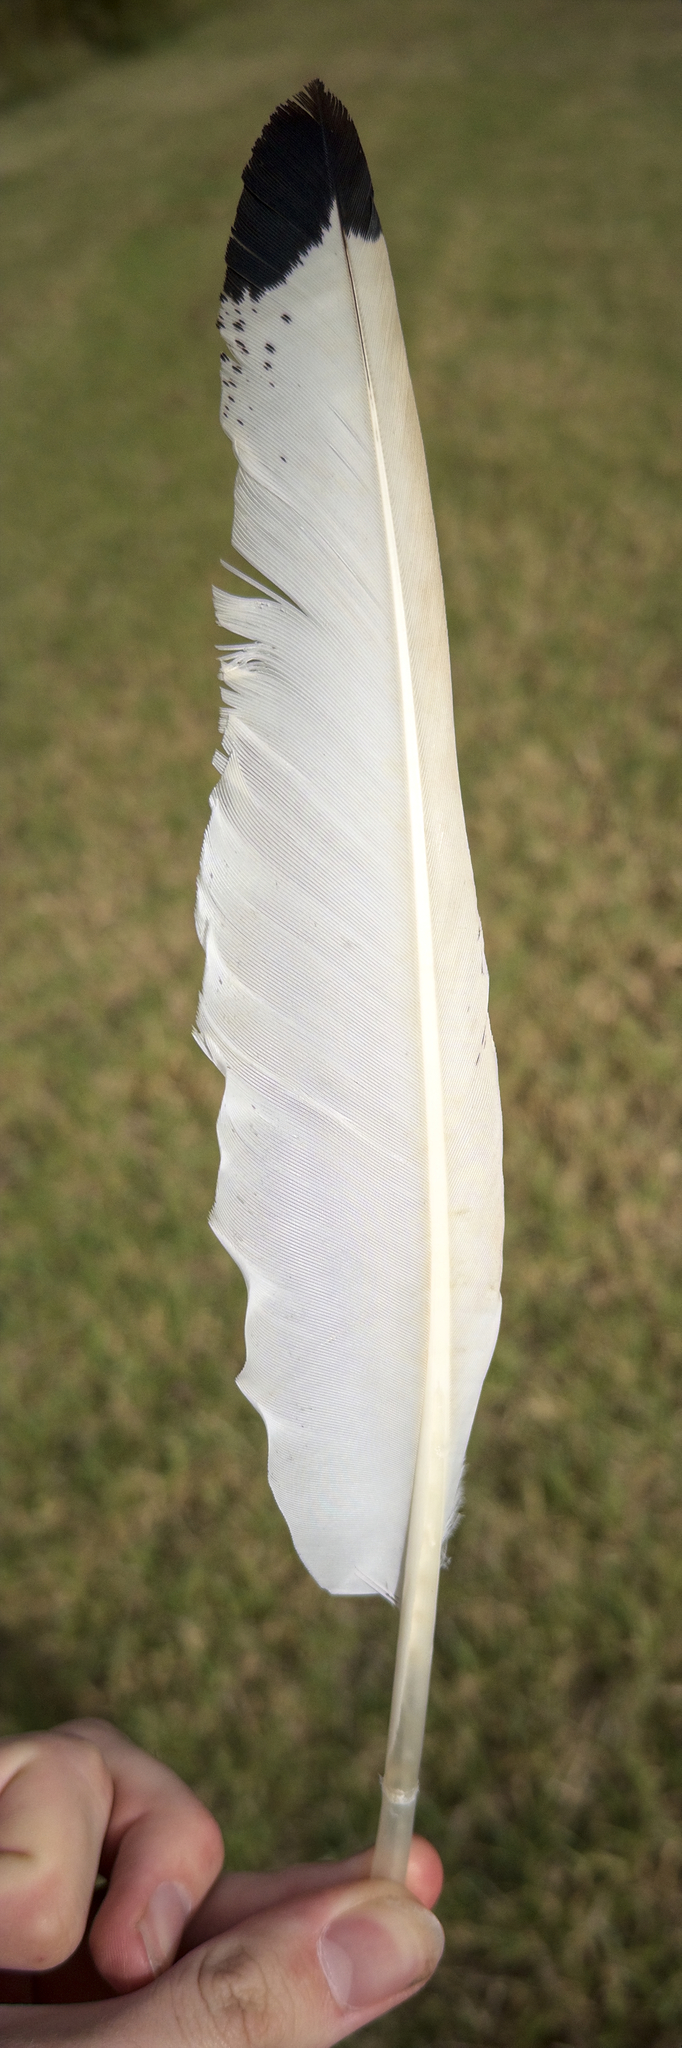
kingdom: Animalia
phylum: Chordata
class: Aves
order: Pelecaniformes
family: Threskiornithidae
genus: Threskiornis
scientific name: Threskiornis molucca
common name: Australian white ibis
